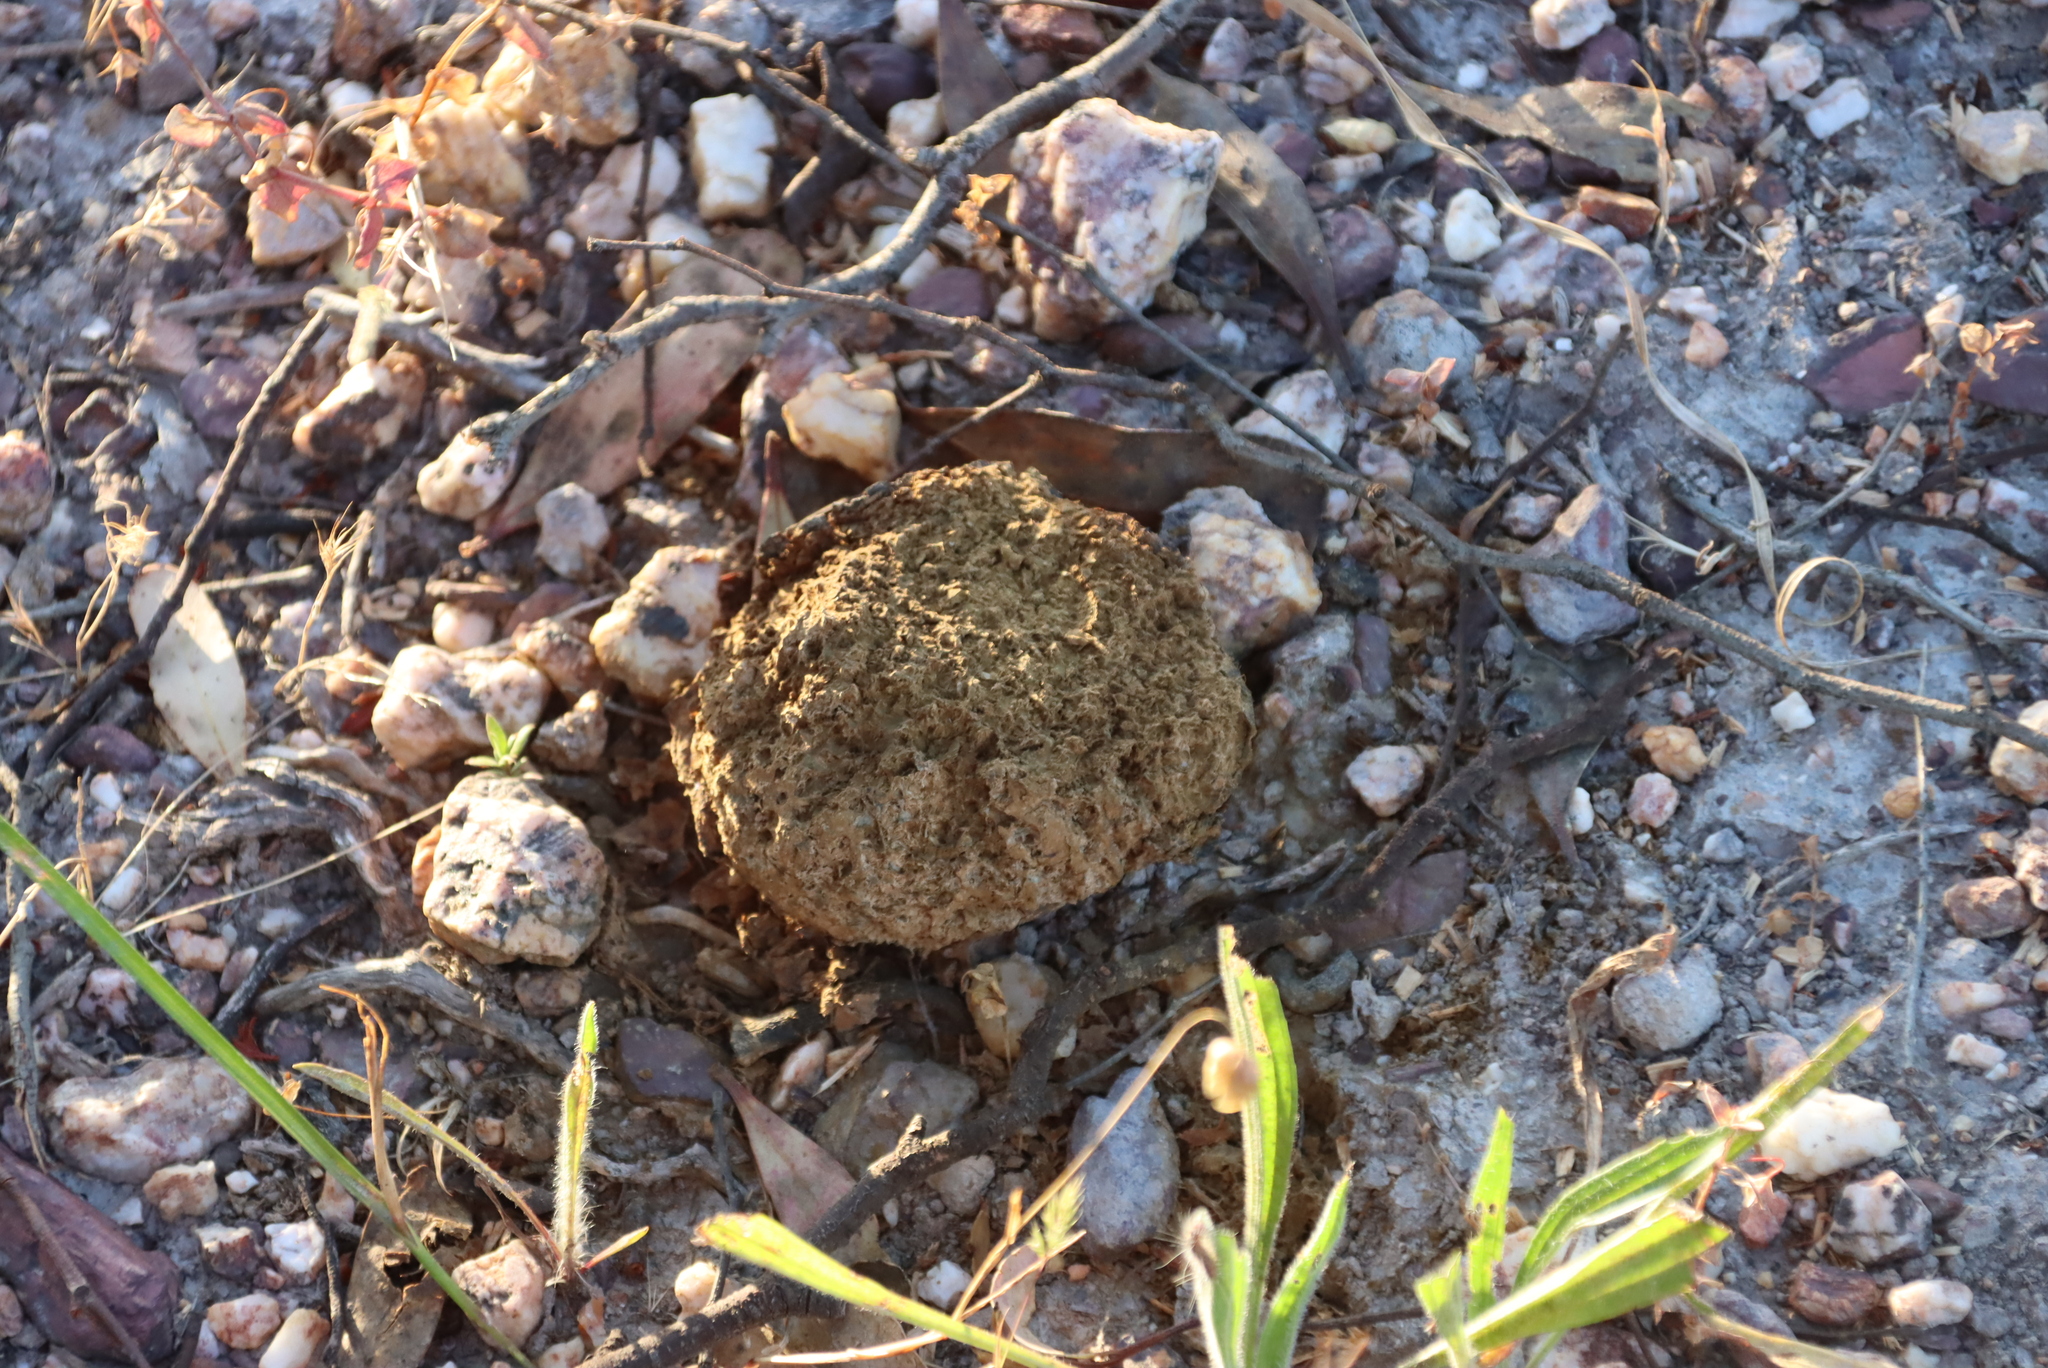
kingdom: Fungi
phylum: Basidiomycota
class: Agaricomycetes
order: Boletales
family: Sclerodermataceae
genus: Pisolithus
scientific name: Pisolithus arhizus
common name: Dyeball
